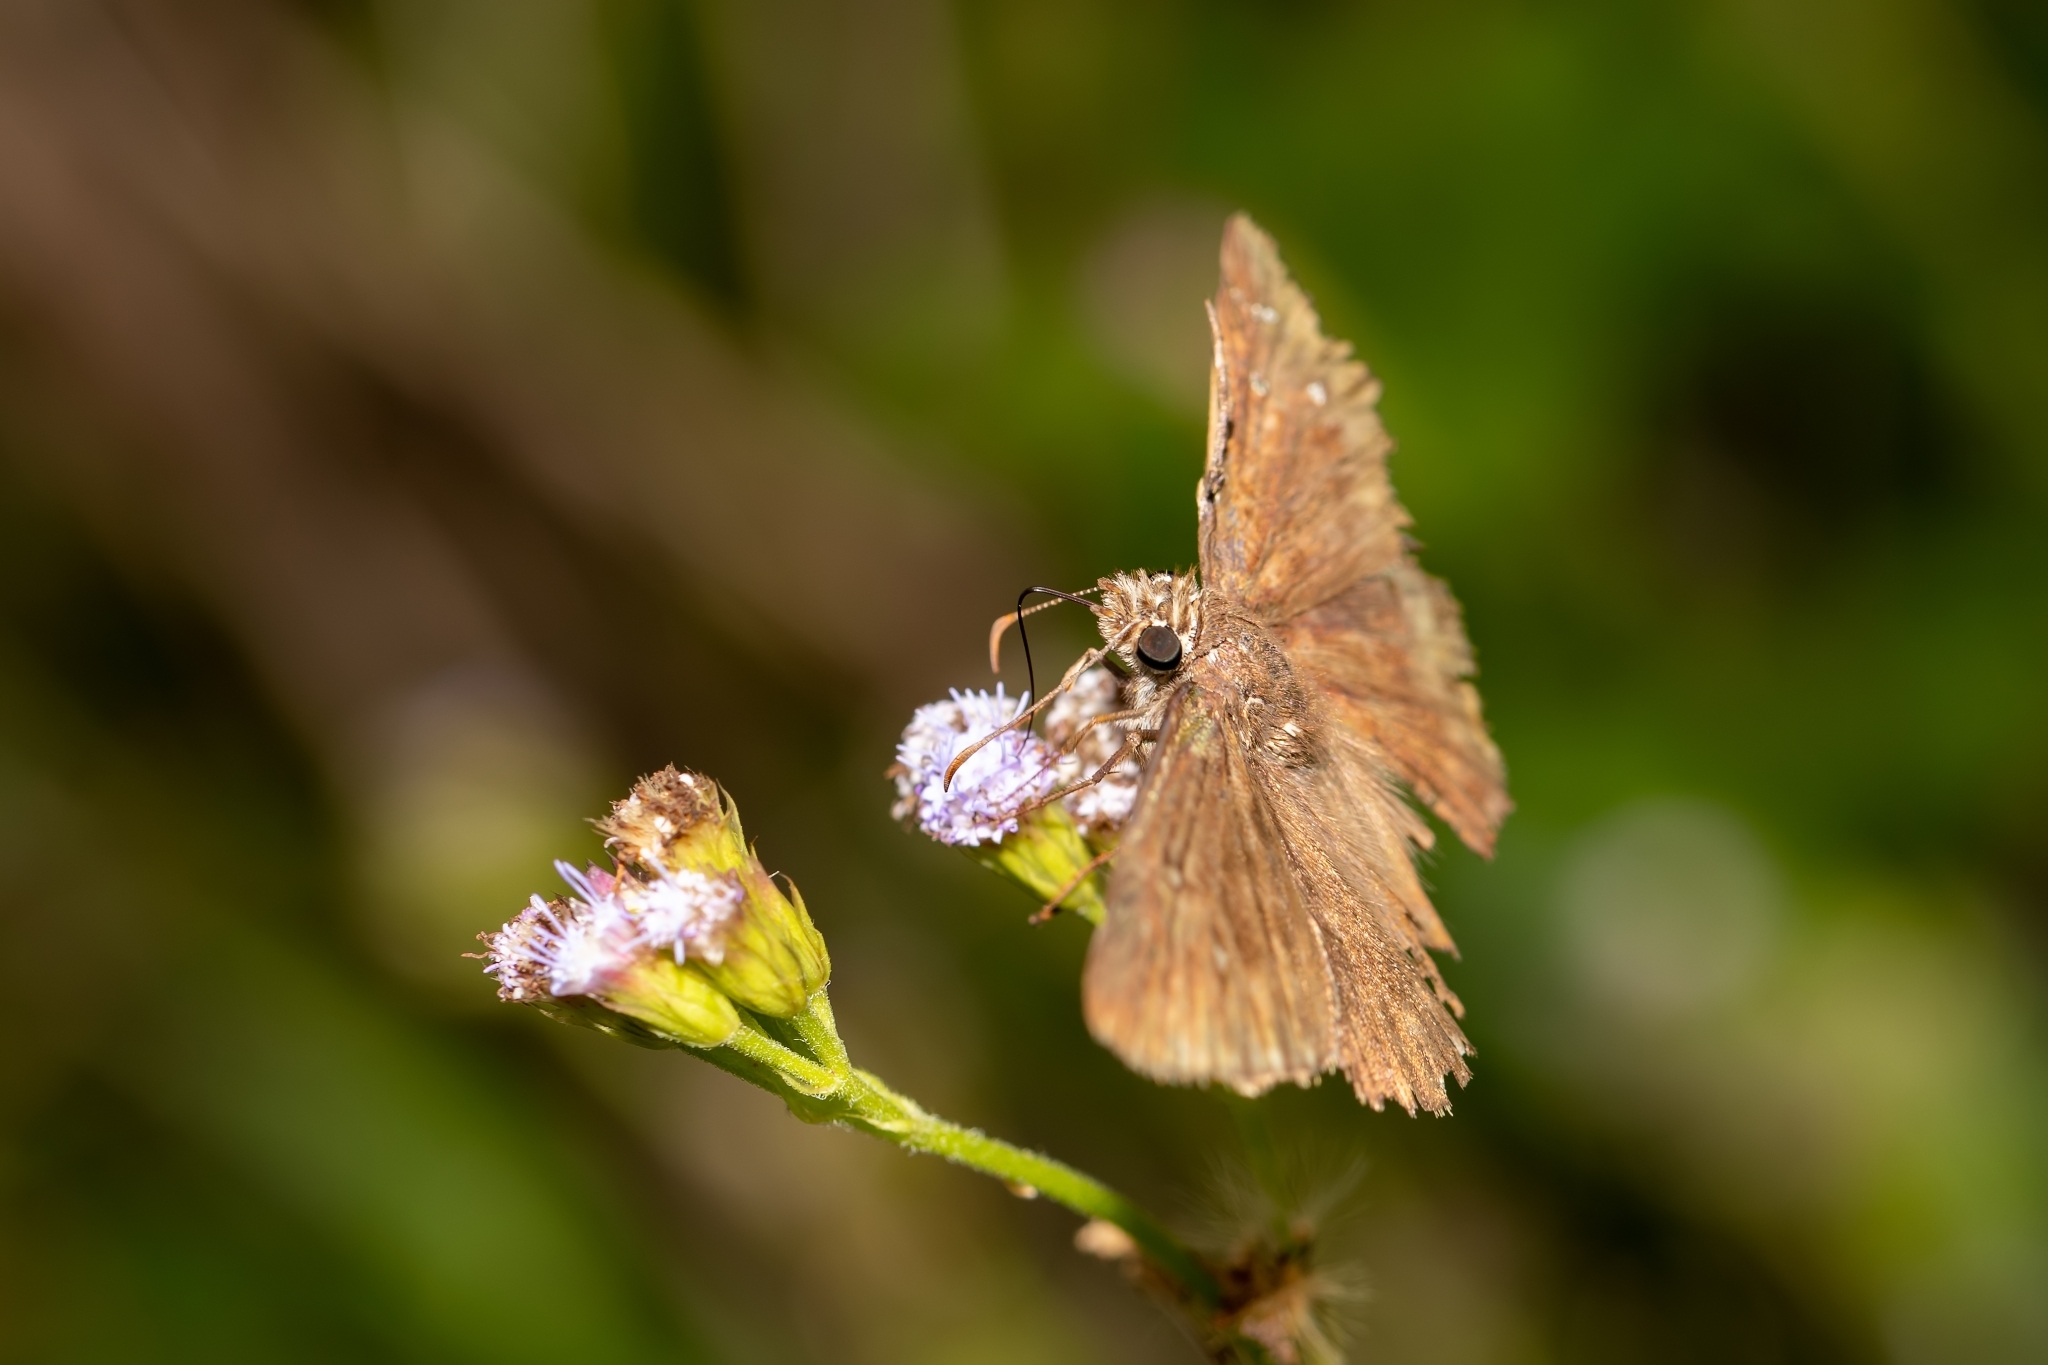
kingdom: Animalia
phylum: Arthropoda
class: Insecta
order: Lepidoptera
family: Hesperiidae
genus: Erynnis
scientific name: Erynnis horatius
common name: Horace's duskywing
